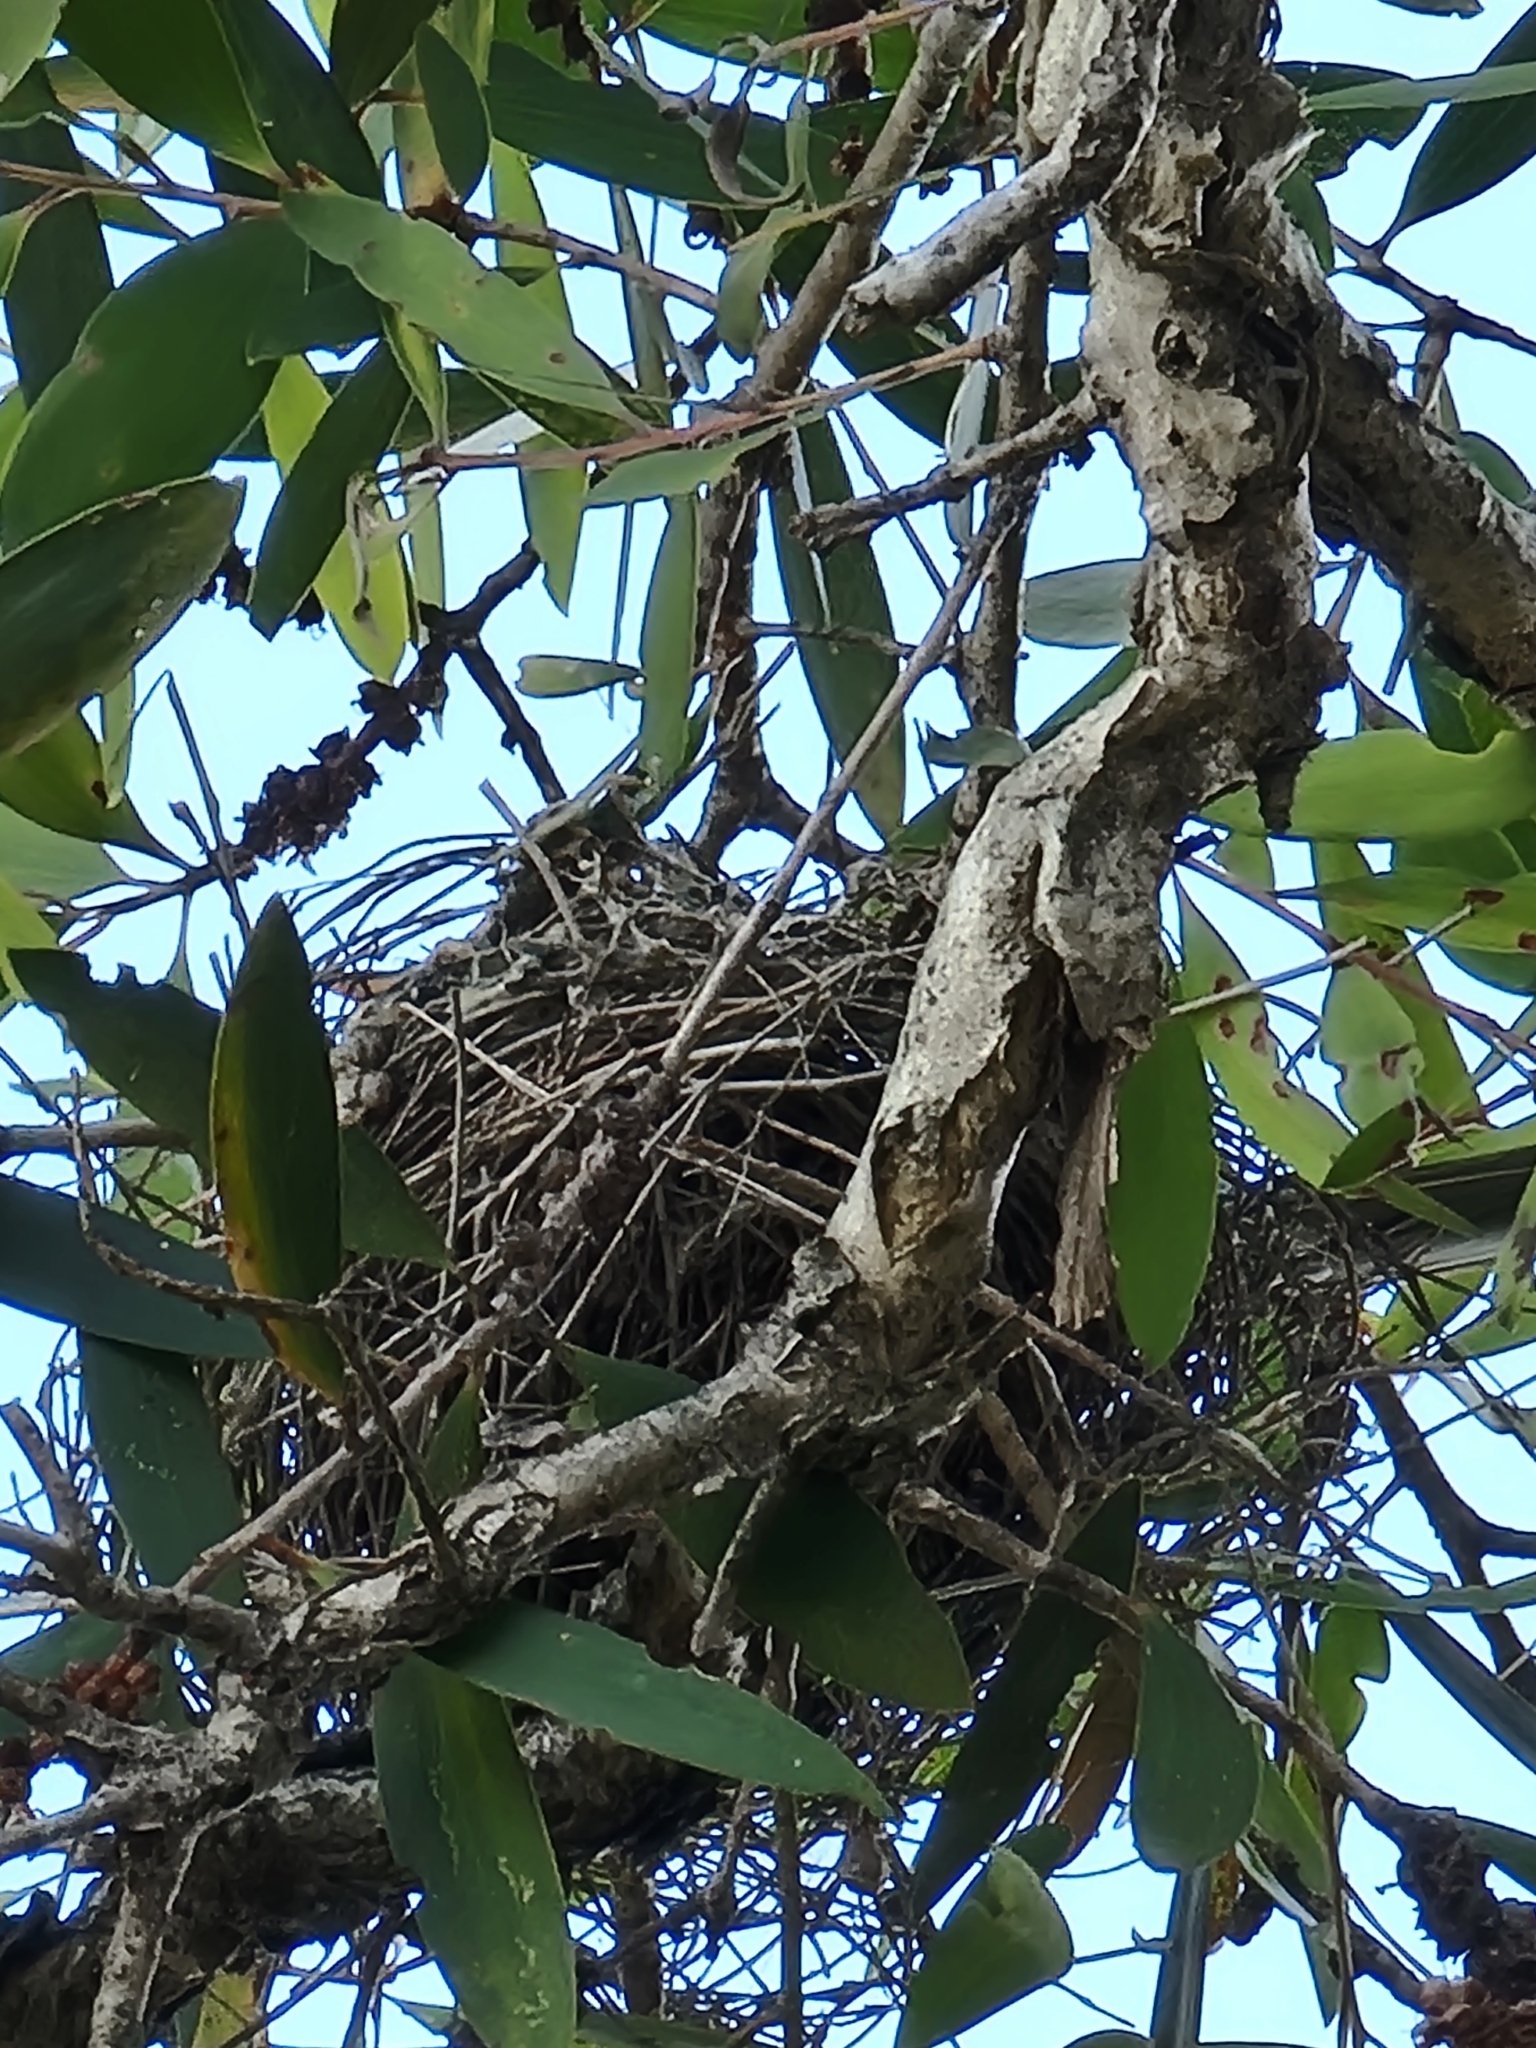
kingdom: Animalia
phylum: Chordata
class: Aves
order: Passeriformes
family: Meliphagidae
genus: Manorina
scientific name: Manorina melanocephala
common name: Noisy miner
